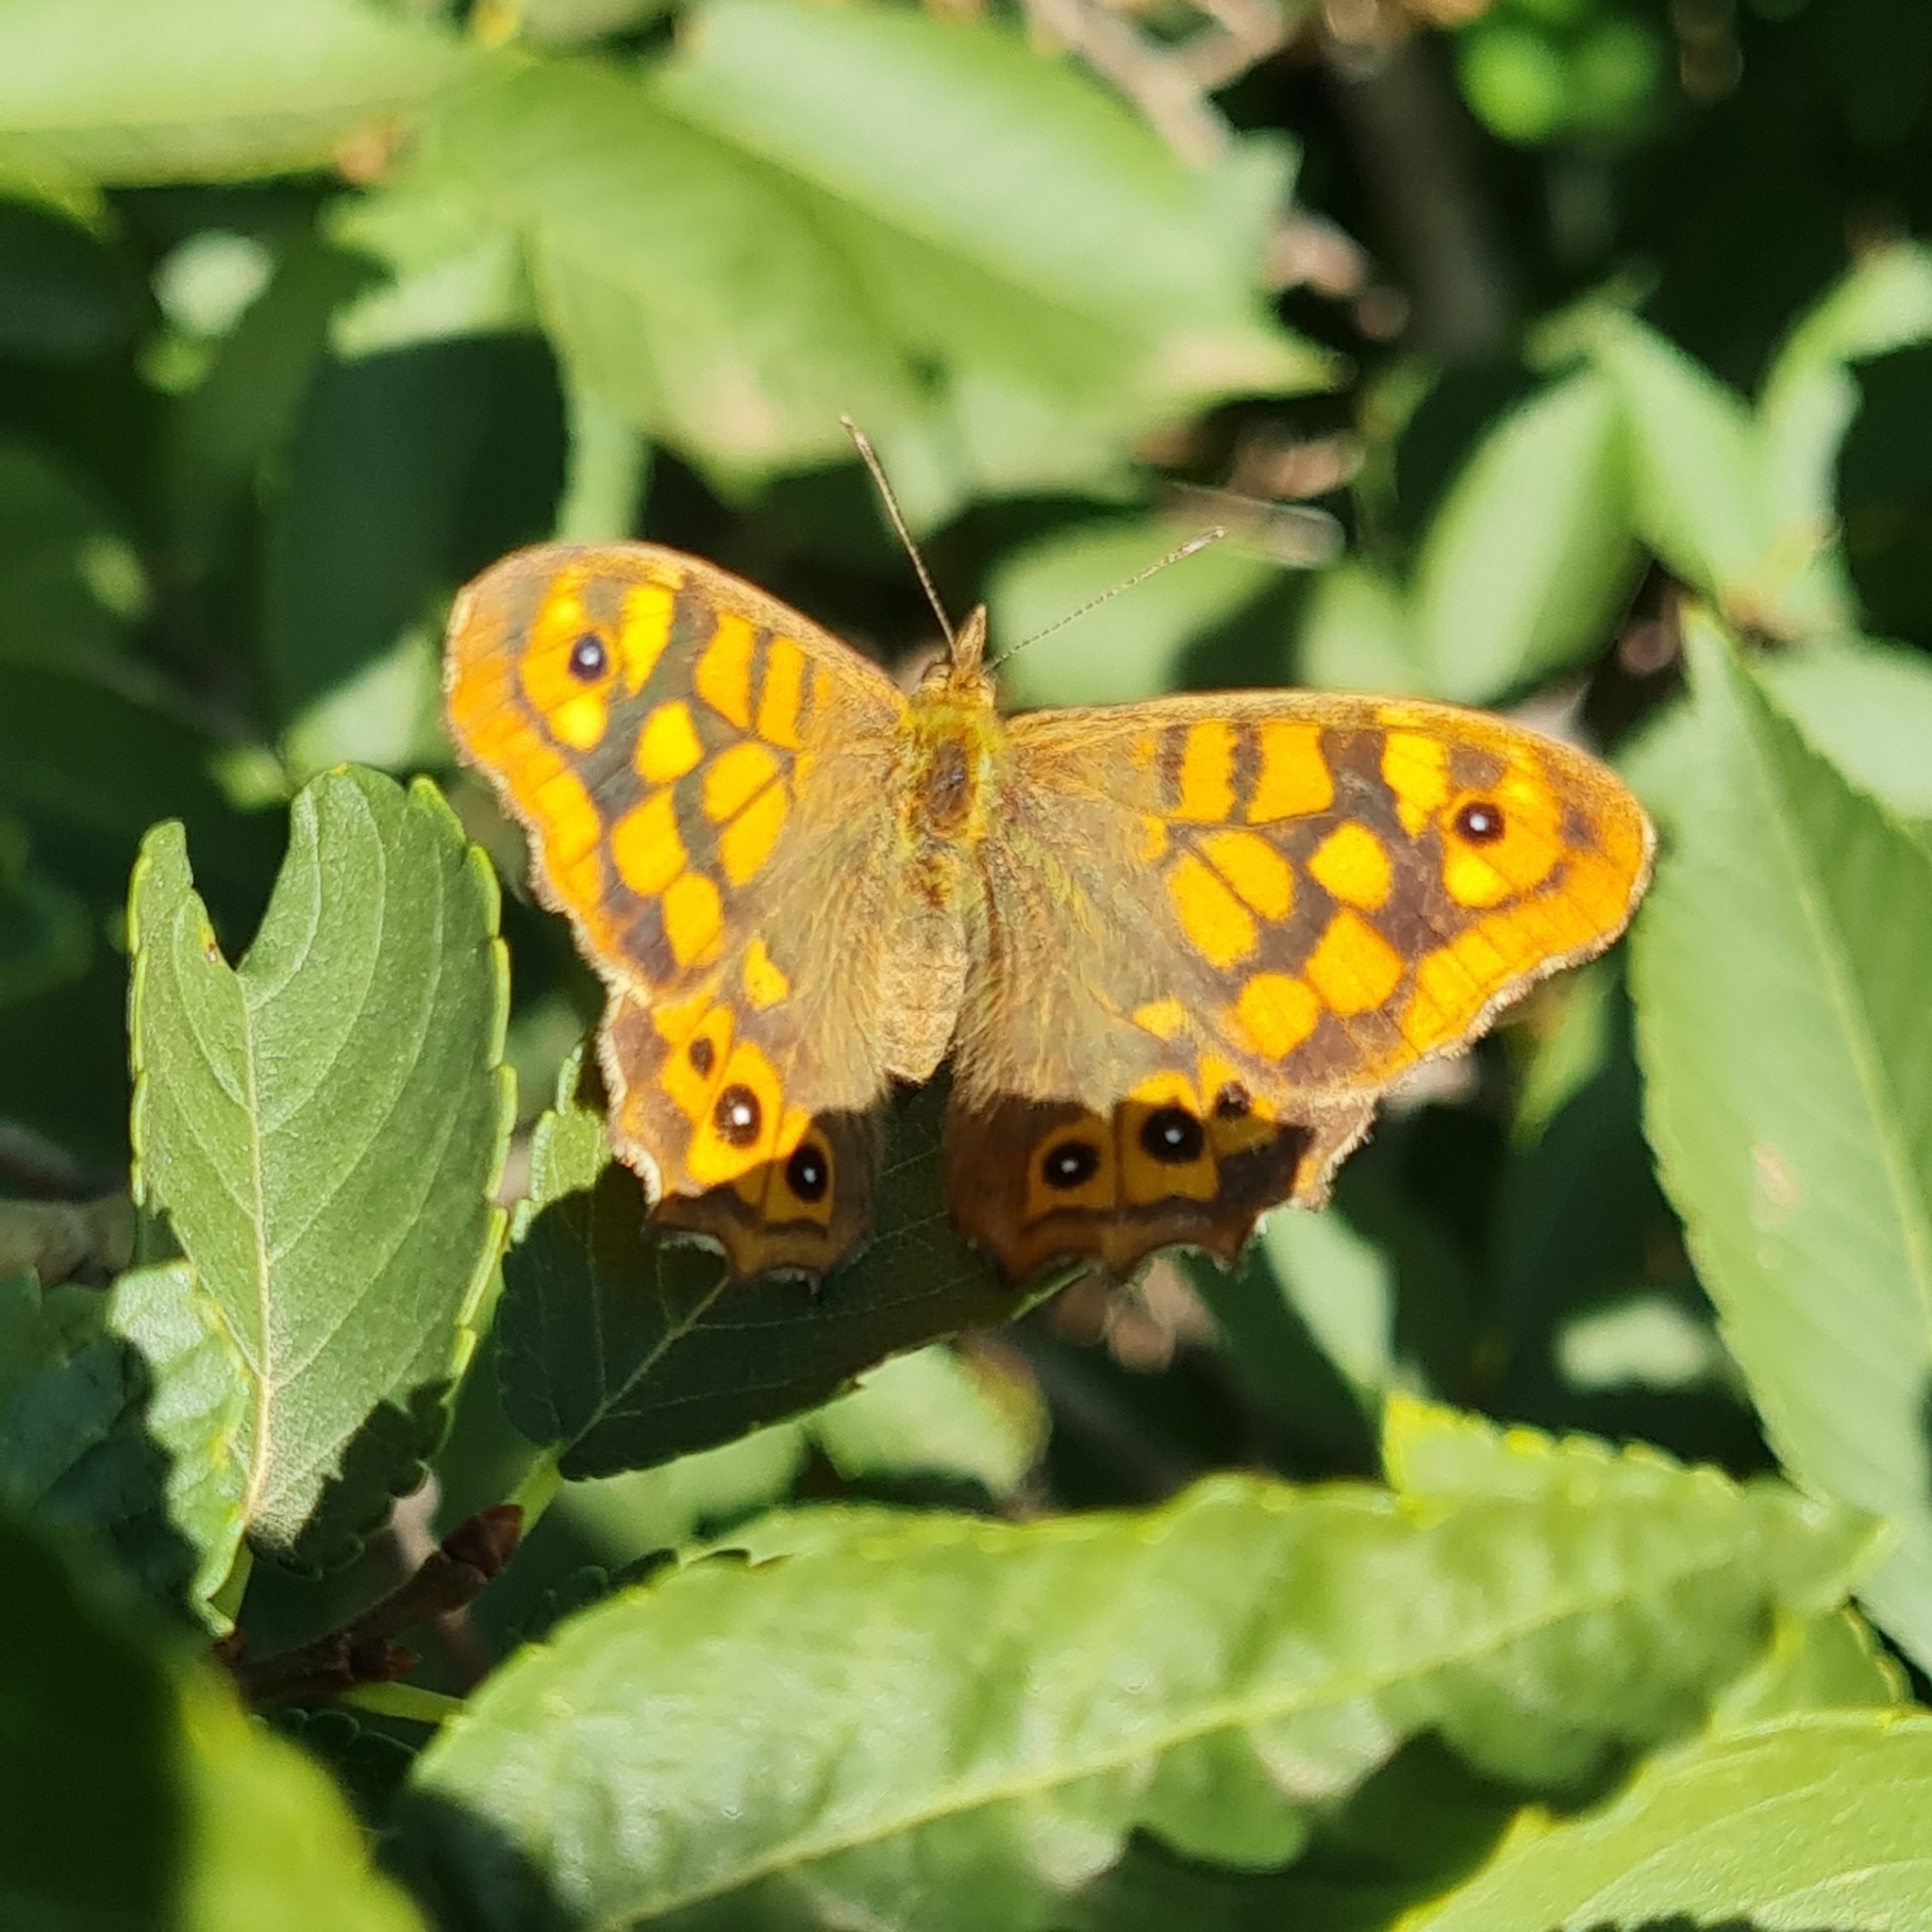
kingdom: Animalia
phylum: Arthropoda
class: Insecta
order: Lepidoptera
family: Nymphalidae
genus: Pararge
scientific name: Pararge aegeria
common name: Speckled wood
